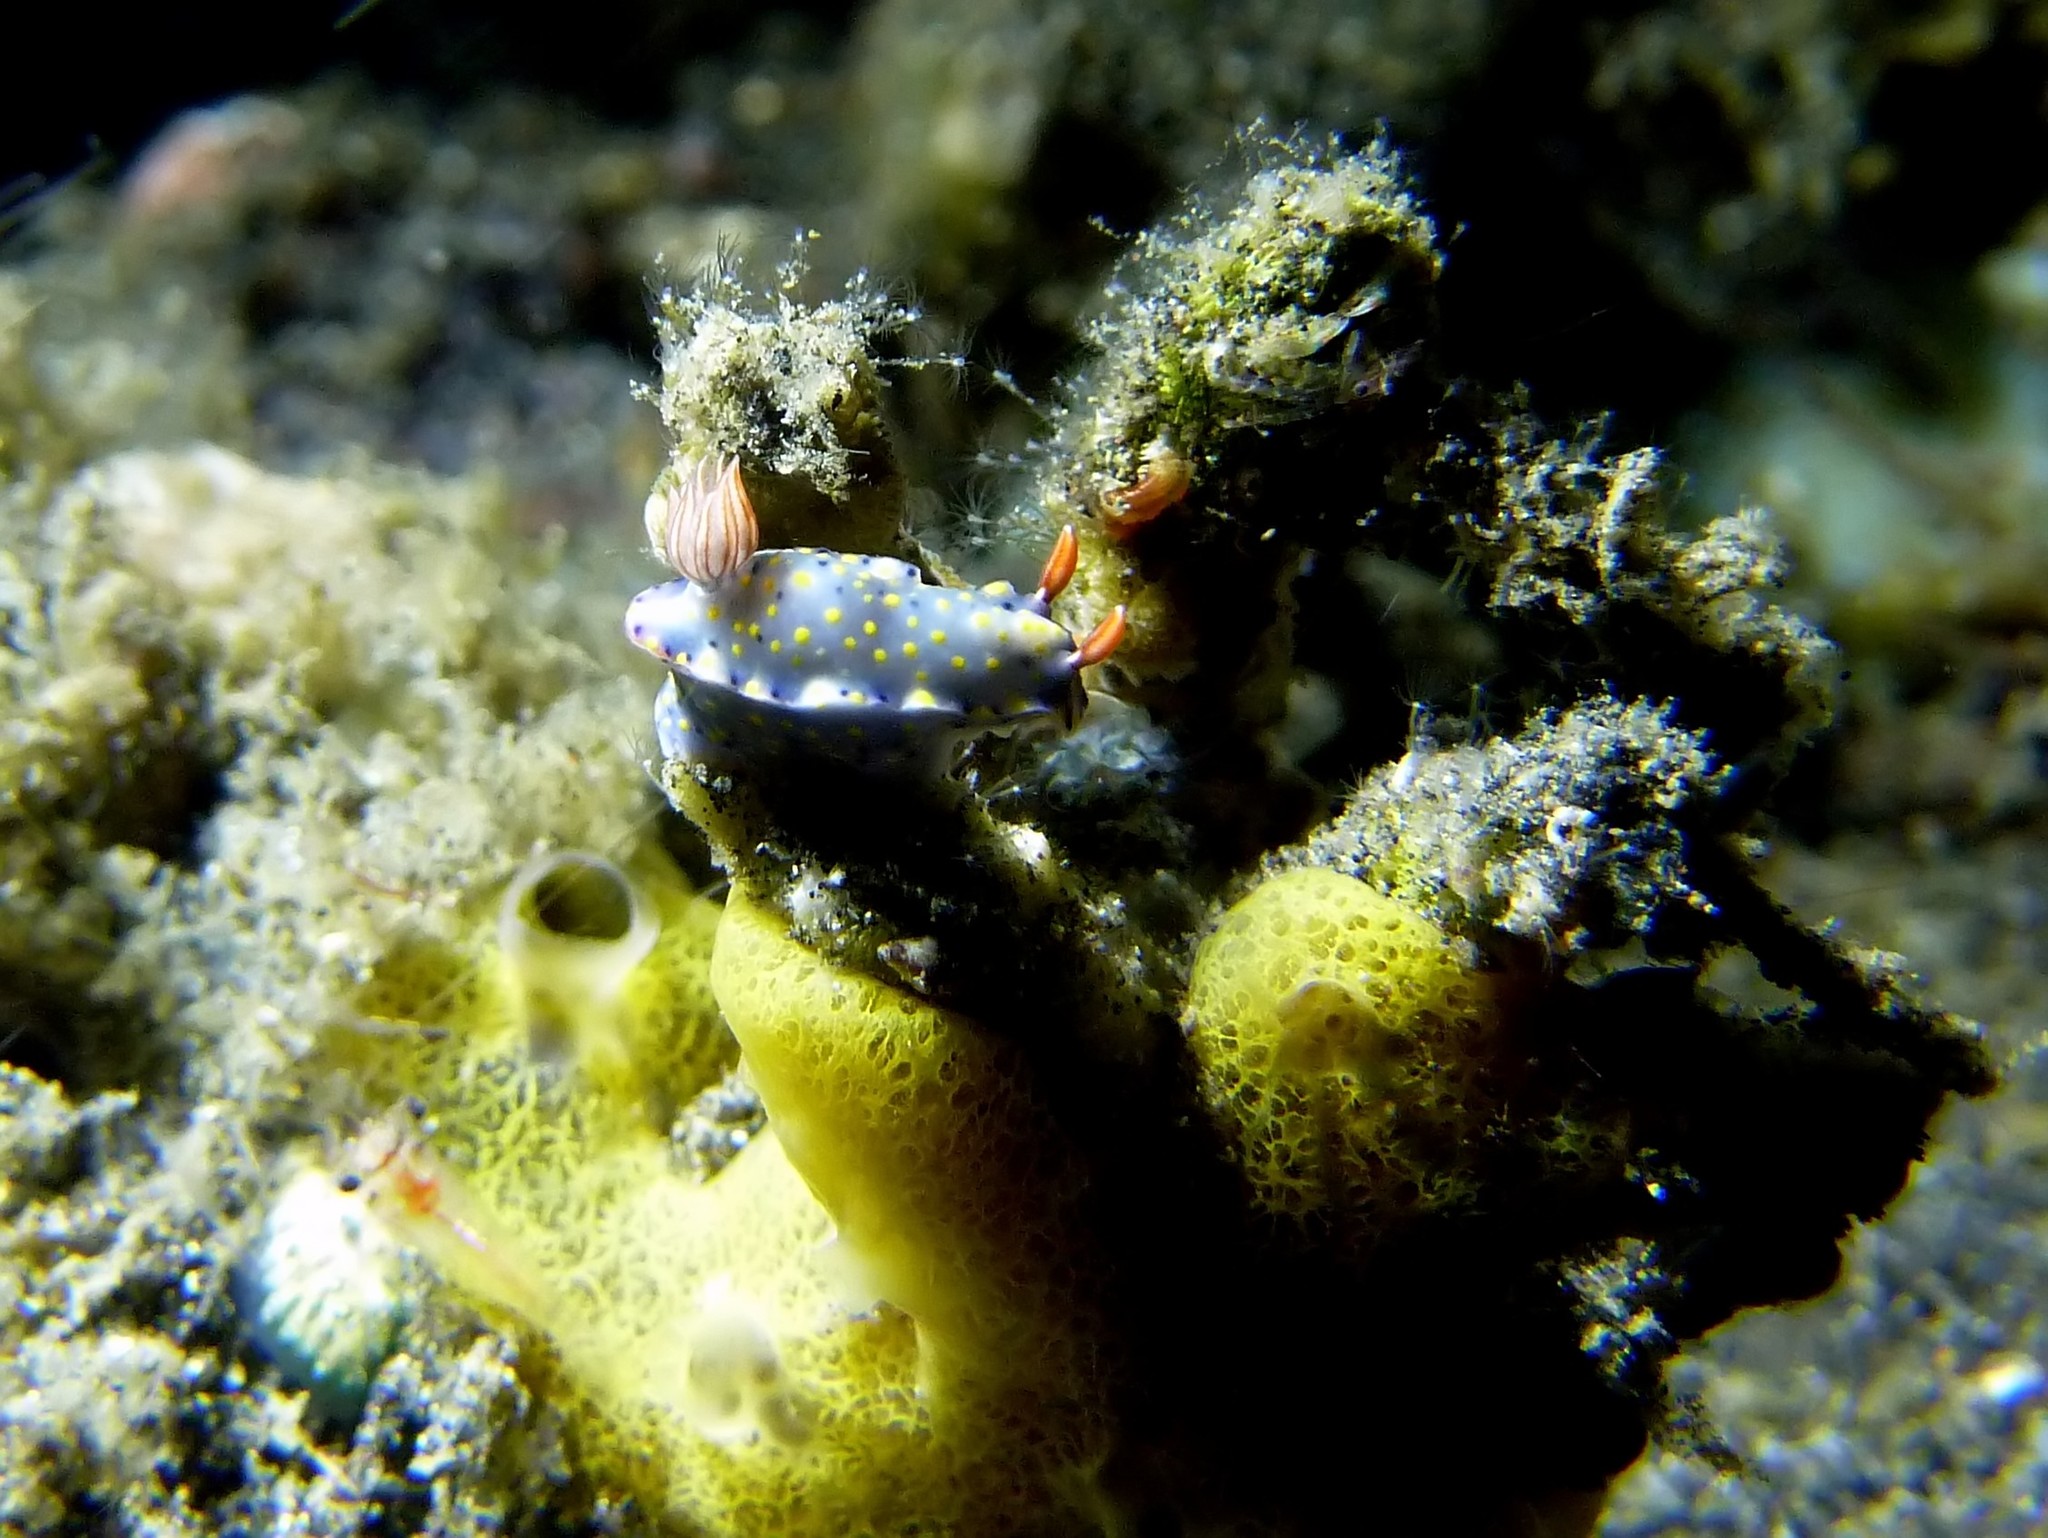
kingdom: Animalia
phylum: Mollusca
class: Gastropoda
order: Nudibranchia
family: Chromodorididae
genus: Hypselodoris
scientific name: Hypselodoris roo
